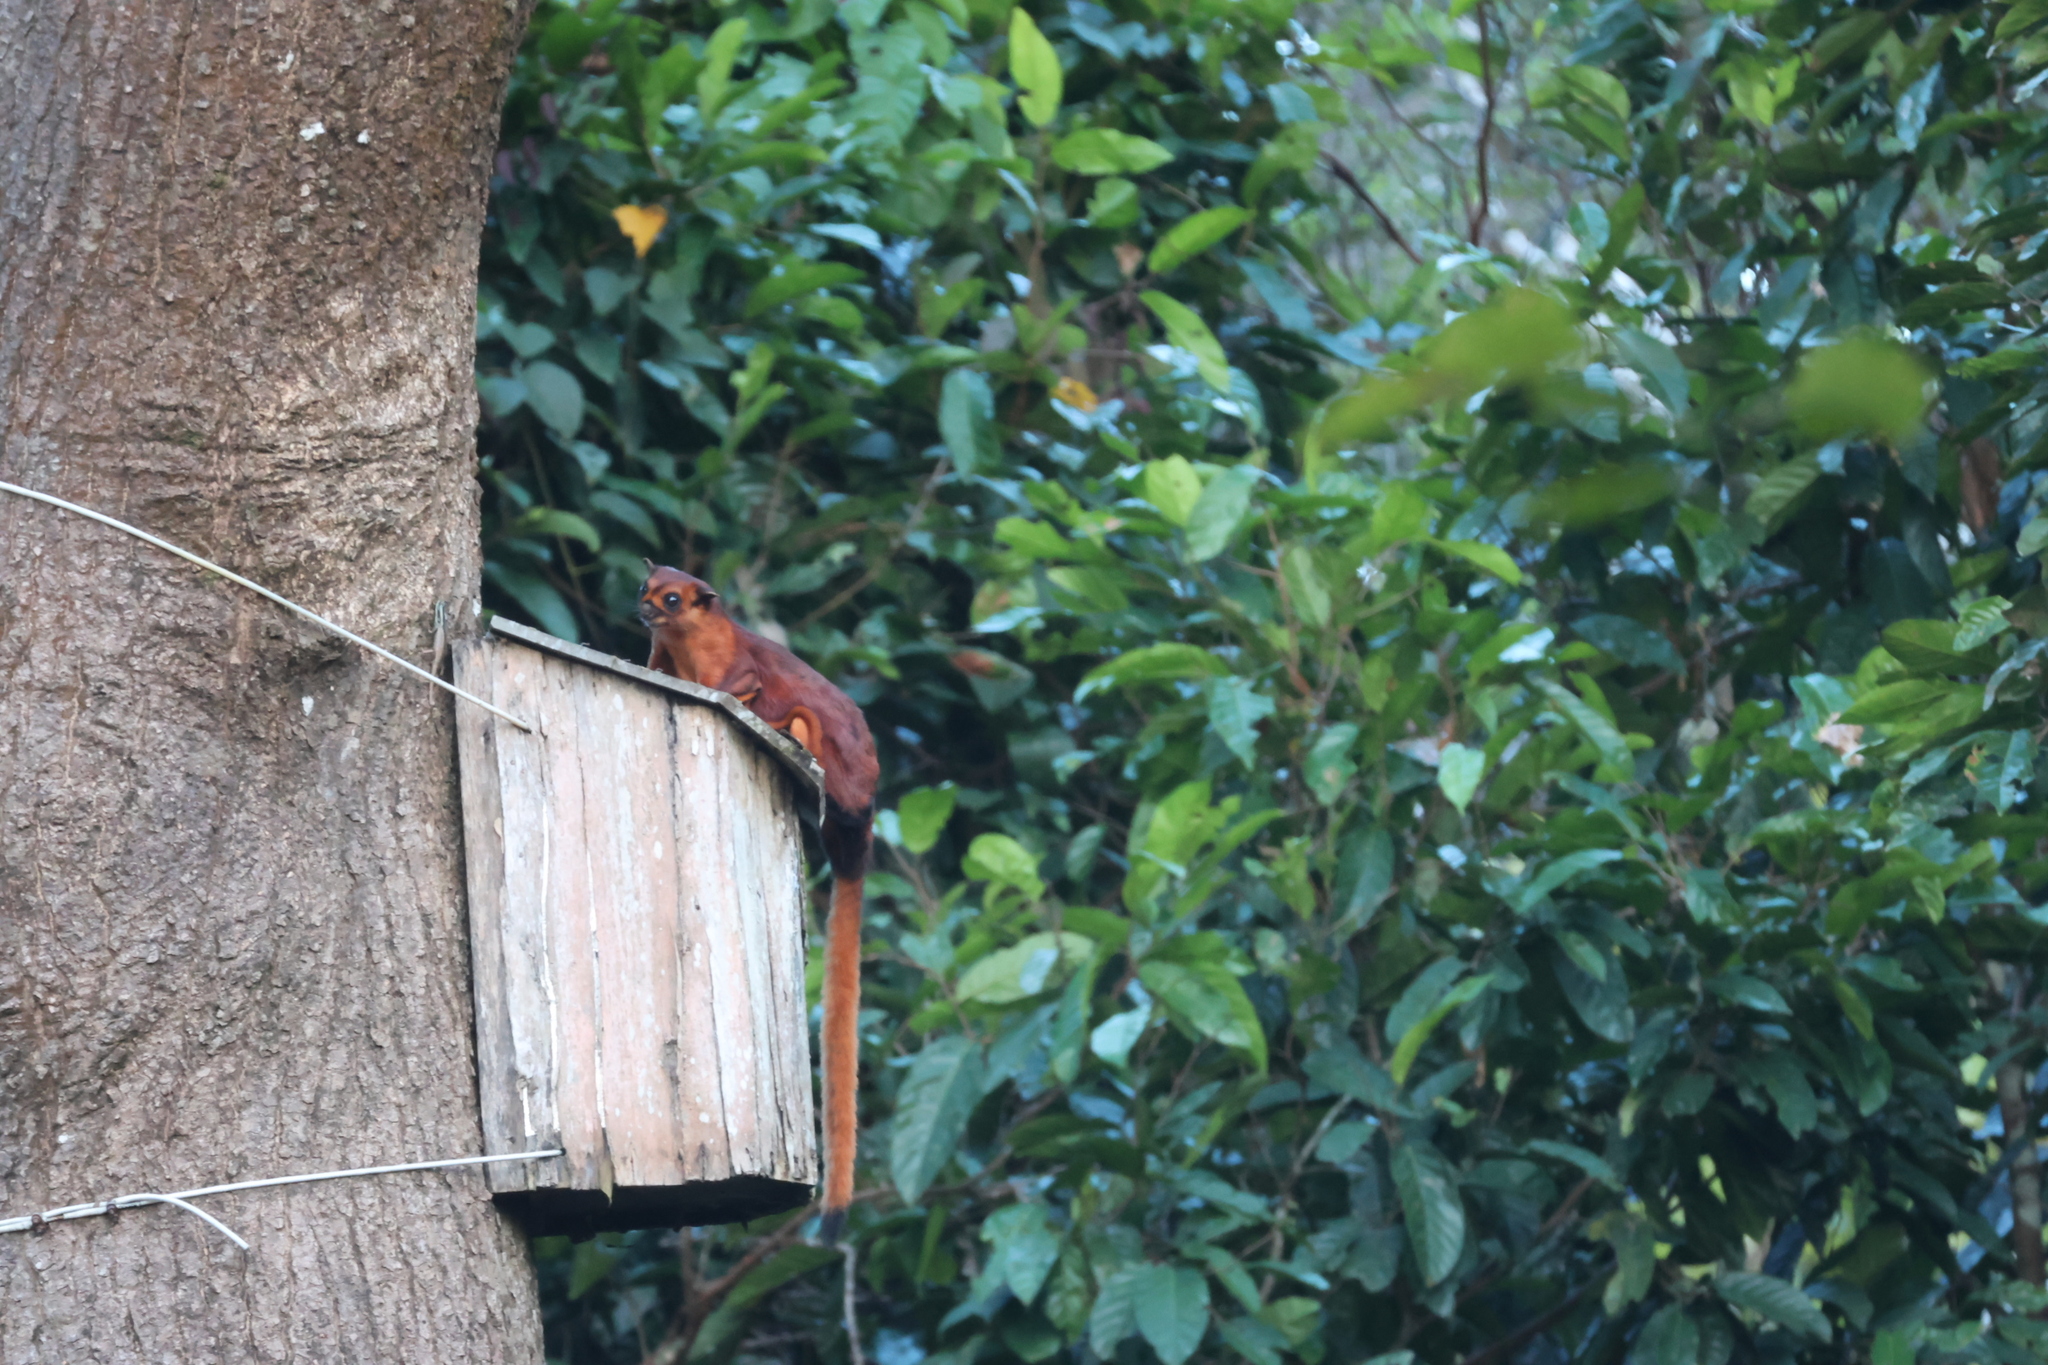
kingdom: Animalia
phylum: Chordata
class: Mammalia
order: Rodentia
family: Sciuridae
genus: Petaurista
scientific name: Petaurista petaurista
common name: Red giant flying squirrel
